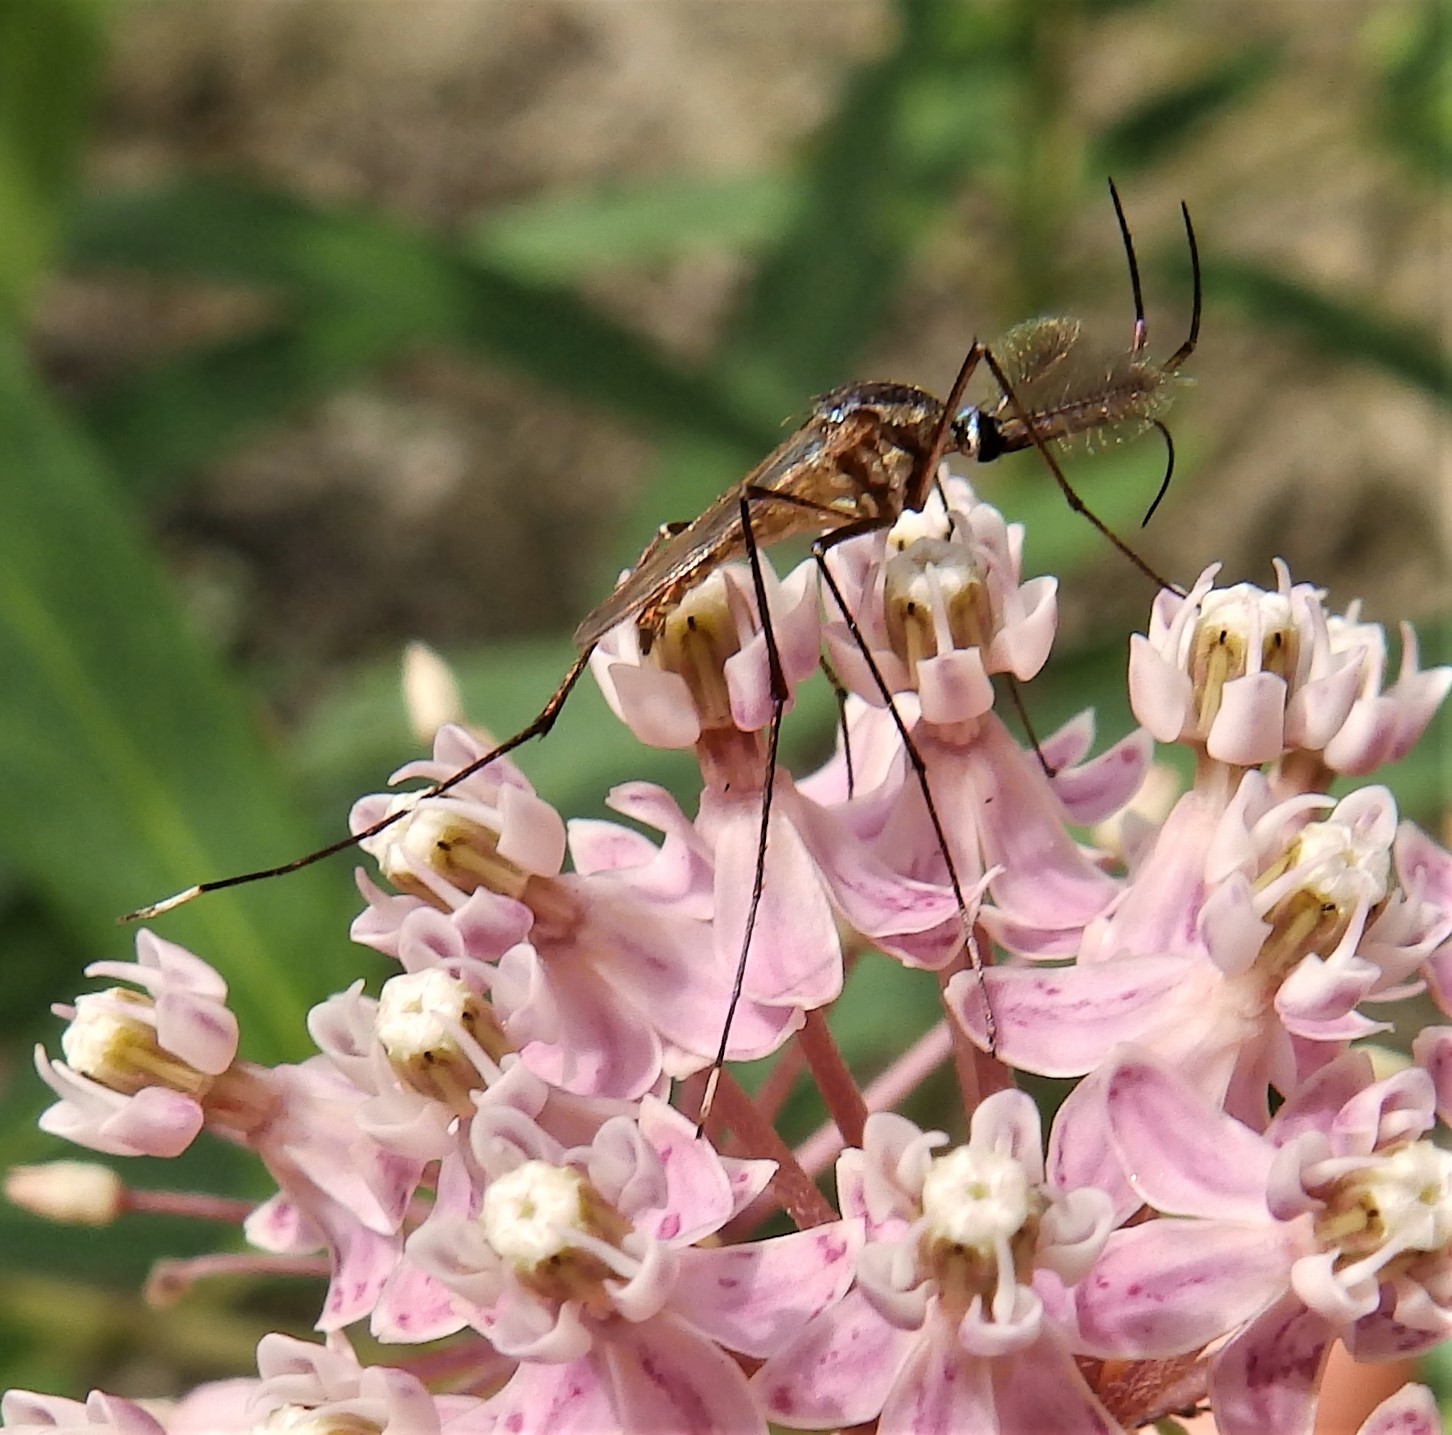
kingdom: Animalia
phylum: Arthropoda
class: Insecta
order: Diptera
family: Culicidae
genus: Toxorhynchites
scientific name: Toxorhynchites rutilus
